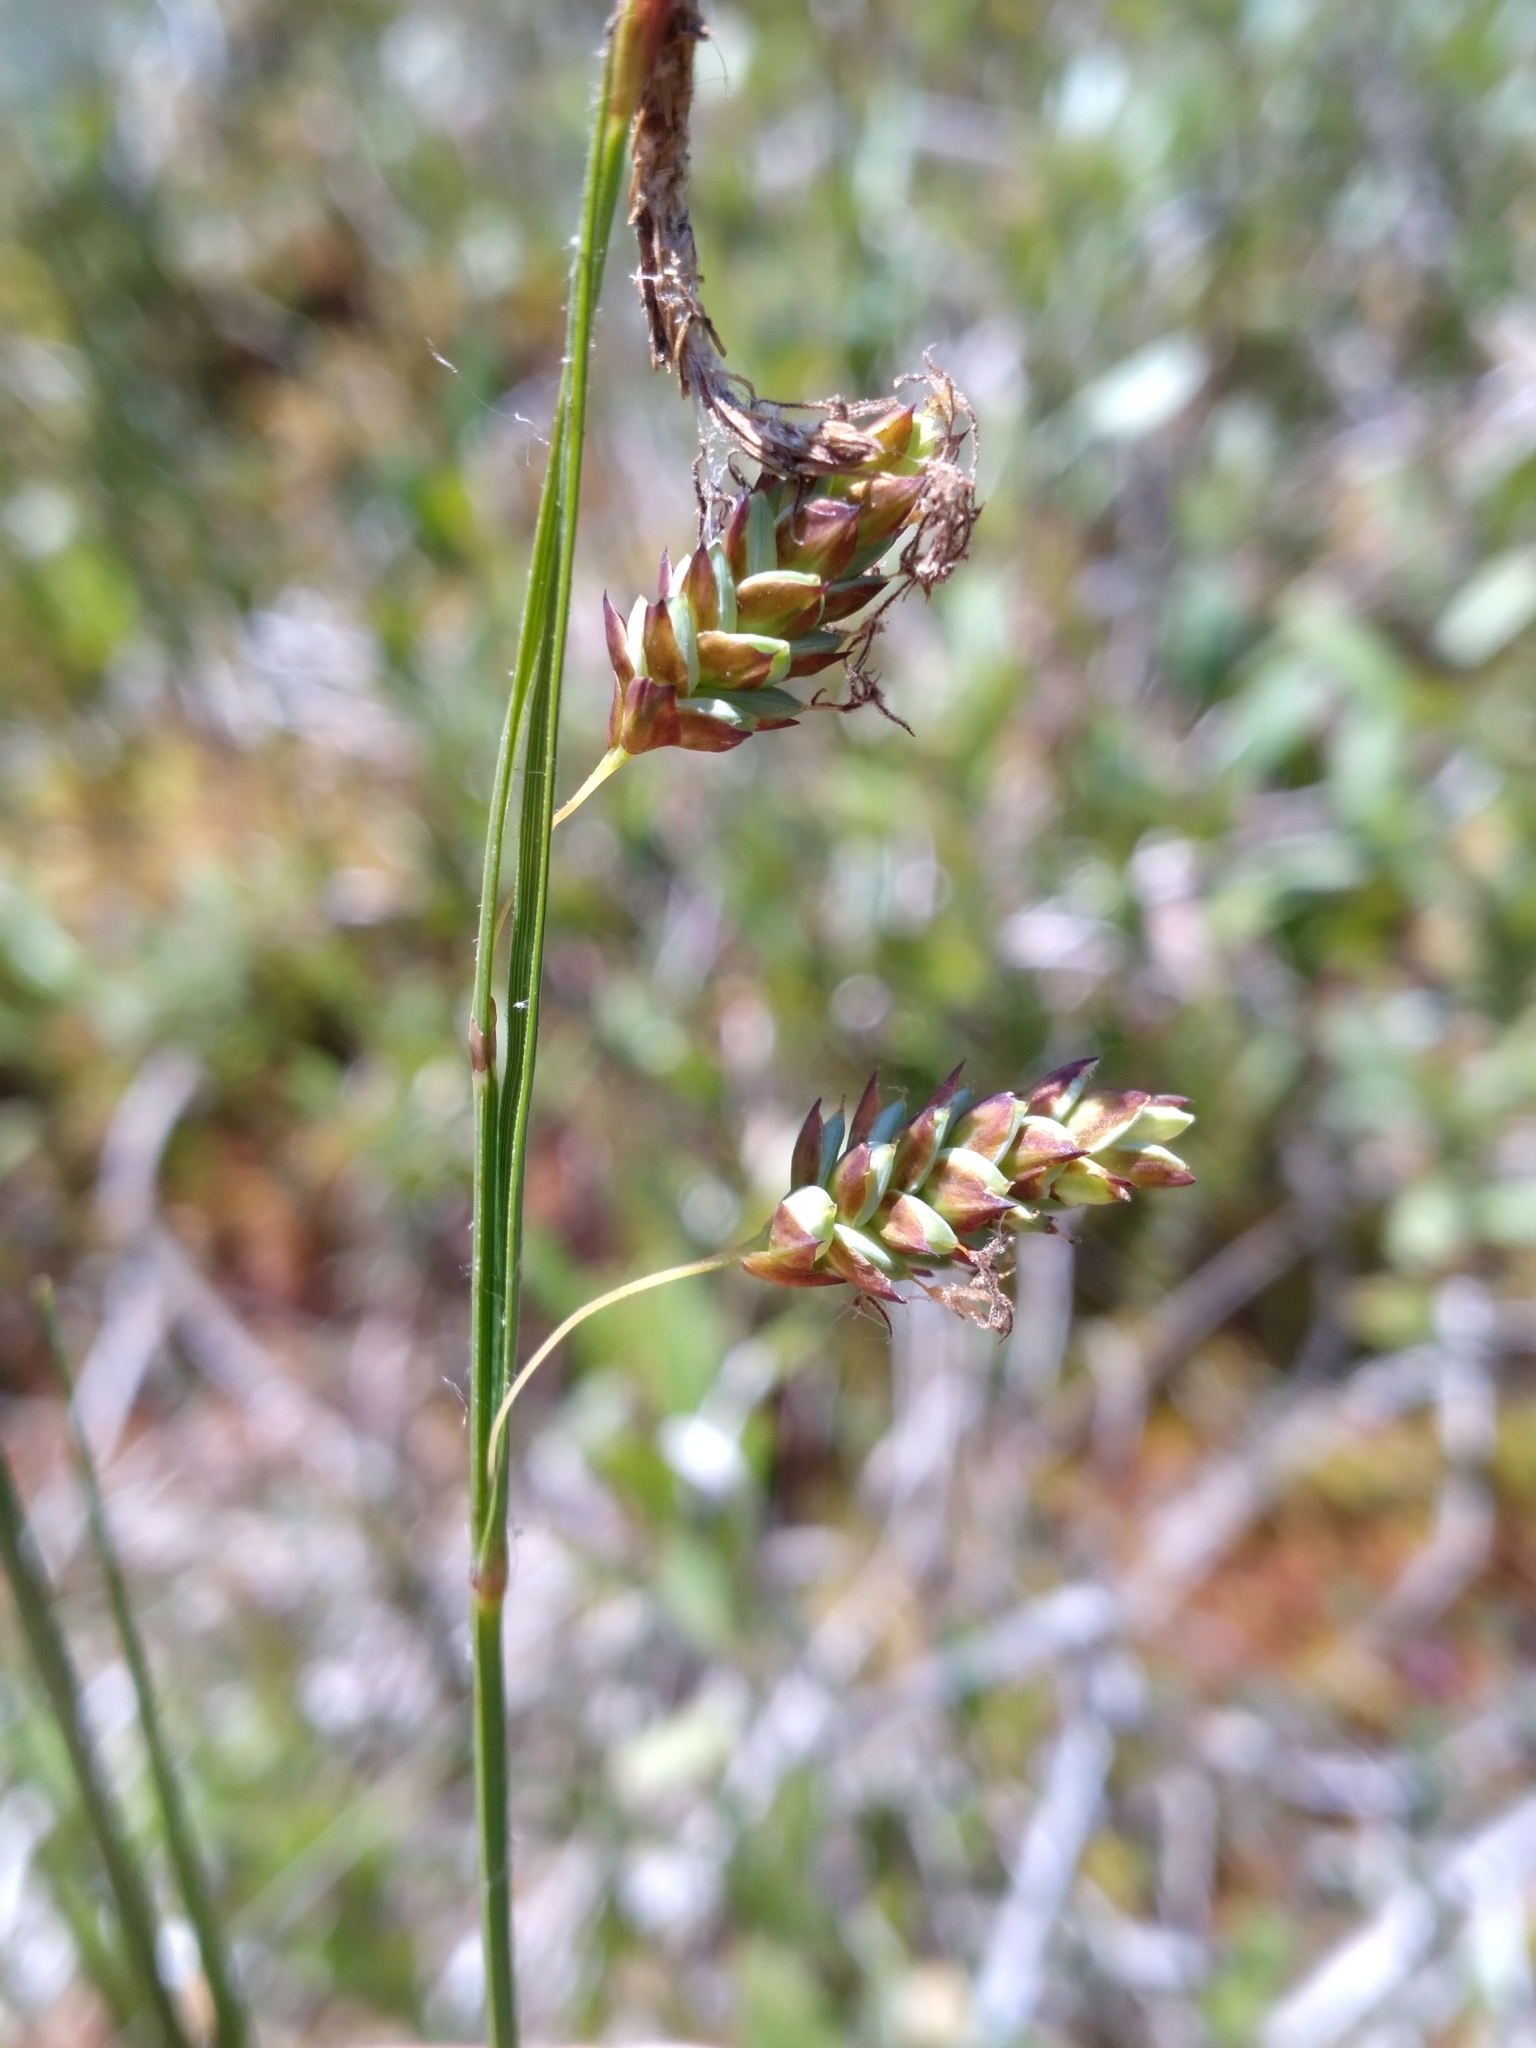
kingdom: Plantae
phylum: Tracheophyta
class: Liliopsida
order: Poales
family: Cyperaceae
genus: Carex
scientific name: Carex limosa
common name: Bog sedge
